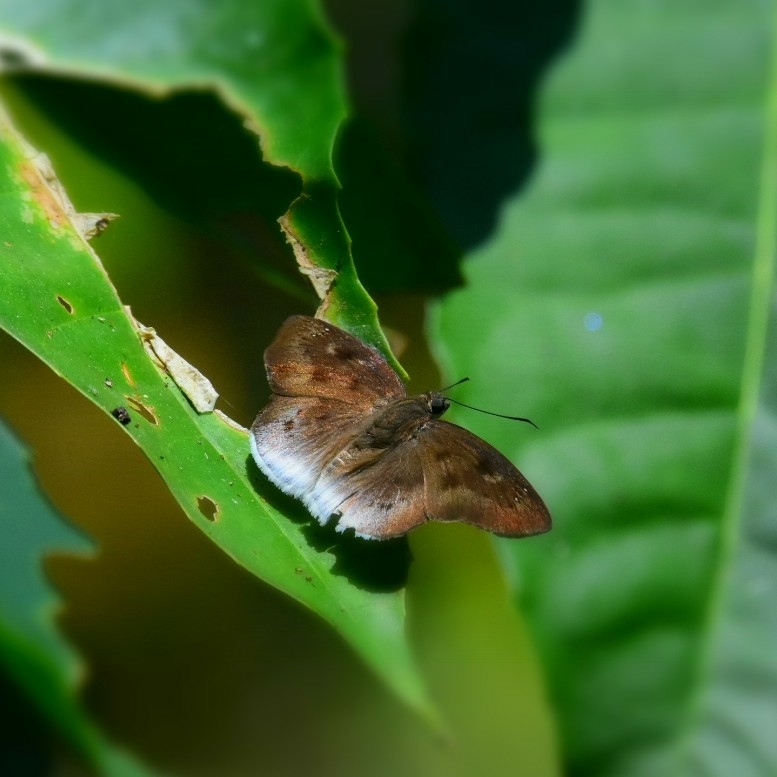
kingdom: Animalia
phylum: Arthropoda
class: Insecta
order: Lepidoptera
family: Hesperiidae
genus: Tagiades
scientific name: Tagiades gana
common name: Suffused snow flat
